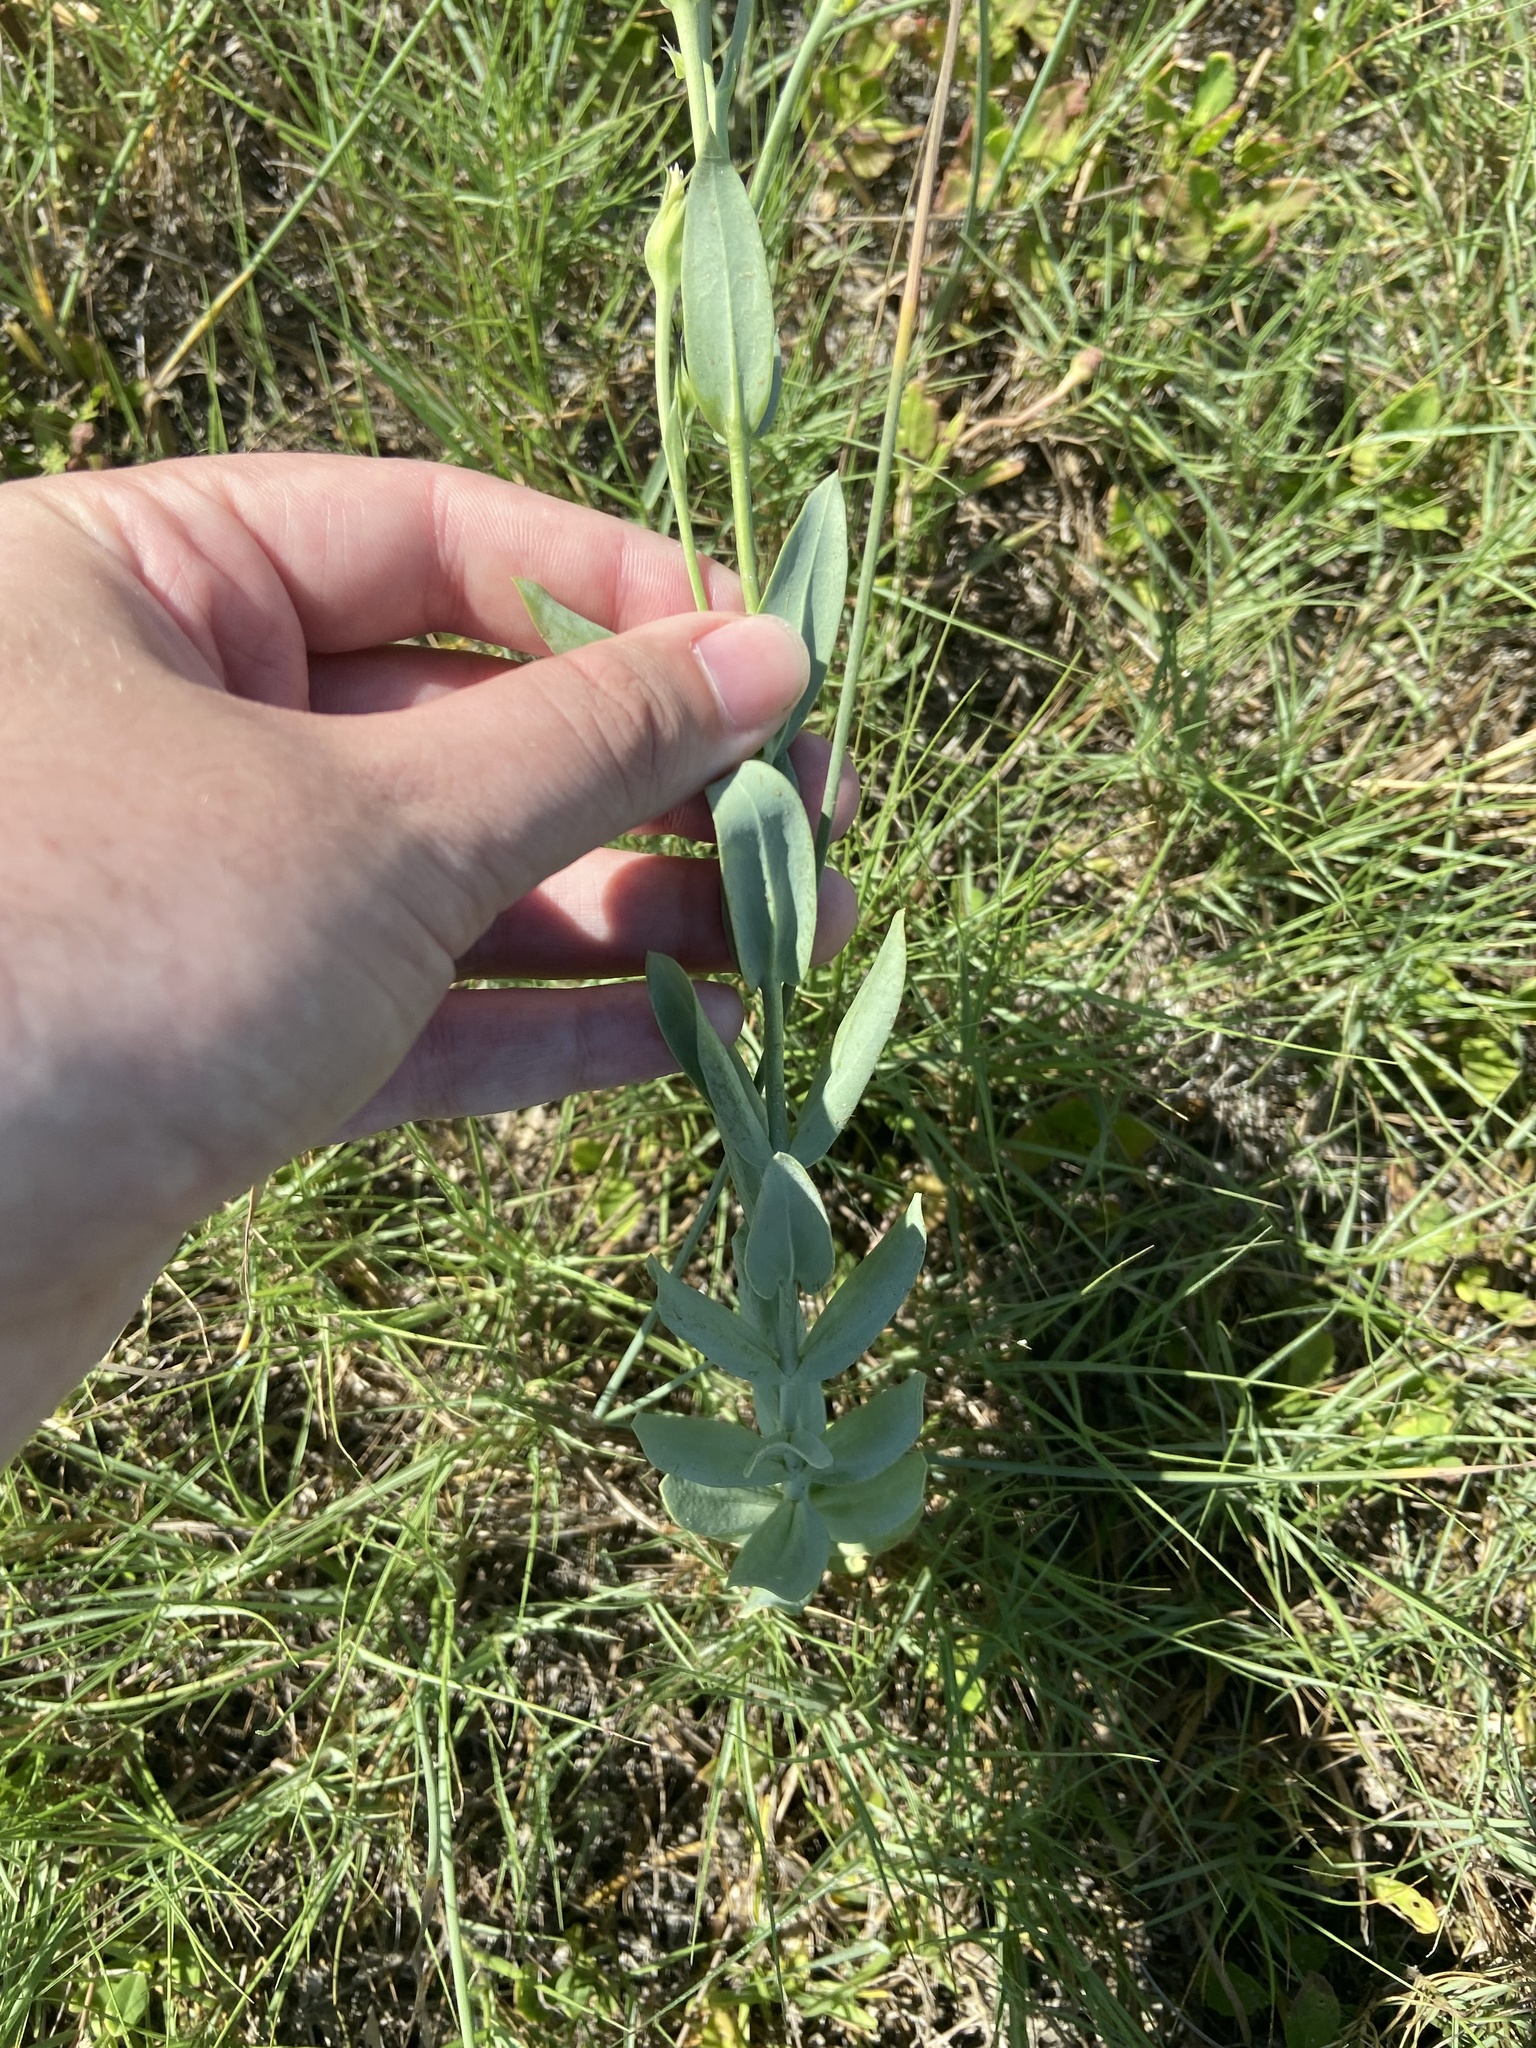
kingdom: Plantae
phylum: Tracheophyta
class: Magnoliopsida
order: Gentianales
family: Gentianaceae
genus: Eustoma
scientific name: Eustoma exaltatum
